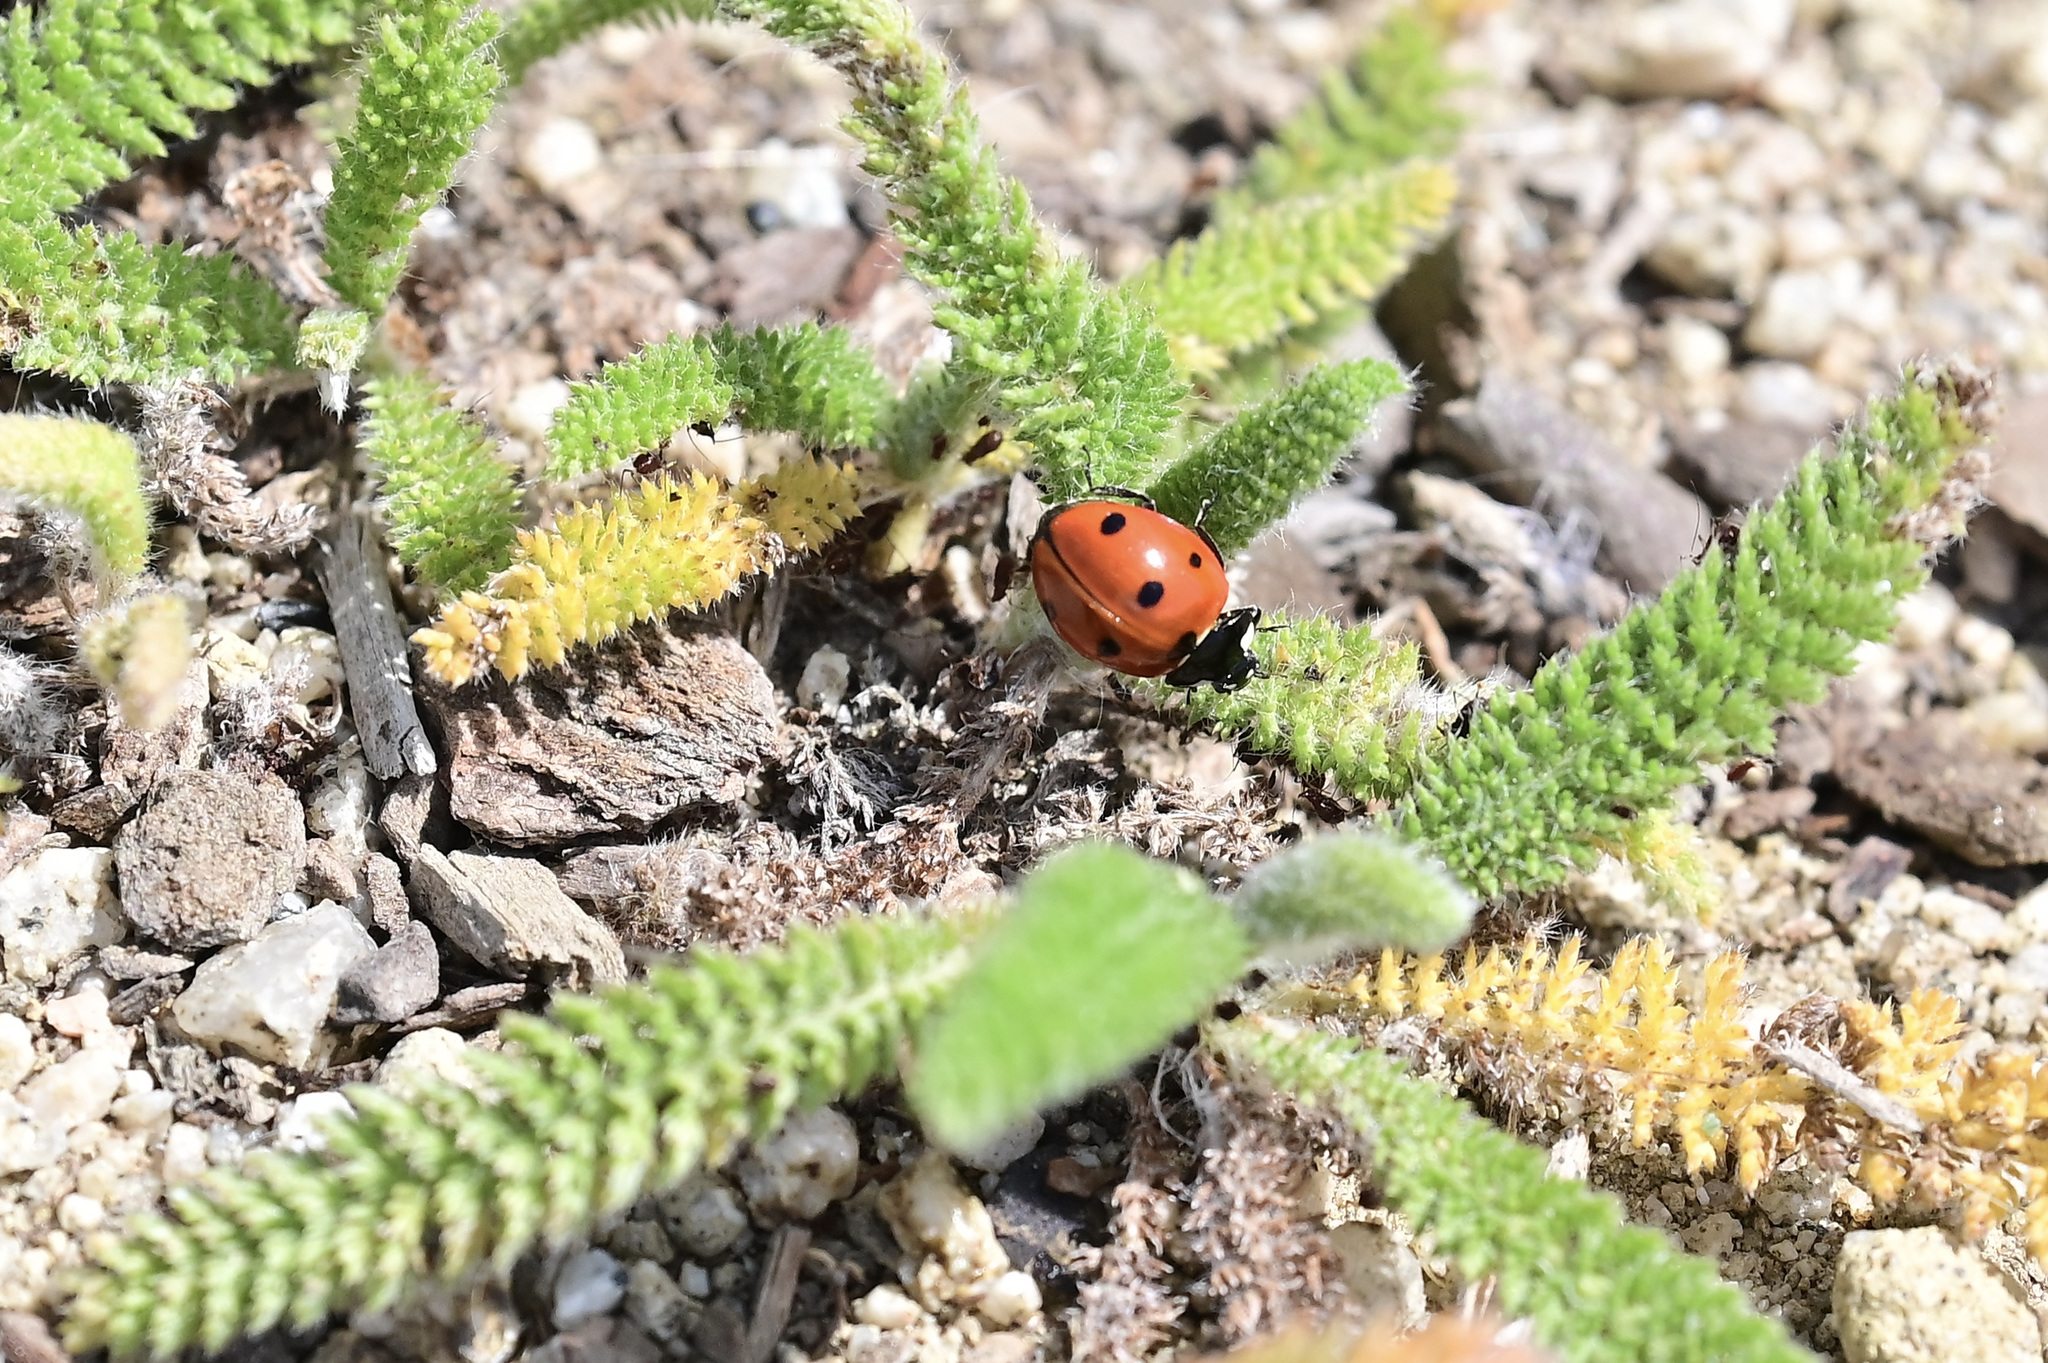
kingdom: Animalia
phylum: Arthropoda
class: Insecta
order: Coleoptera
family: Coccinellidae
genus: Coccinella
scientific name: Coccinella septempunctata
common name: Sevenspotted lady beetle
